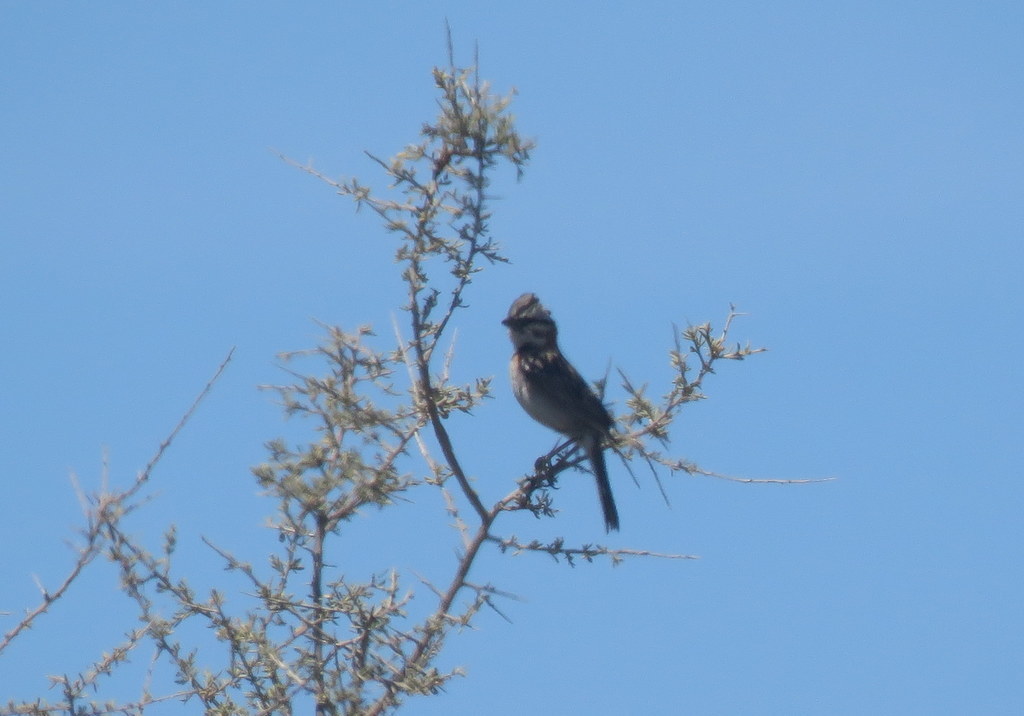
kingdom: Animalia
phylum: Chordata
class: Aves
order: Passeriformes
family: Passerellidae
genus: Zonotrichia
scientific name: Zonotrichia capensis
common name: Rufous-collared sparrow
